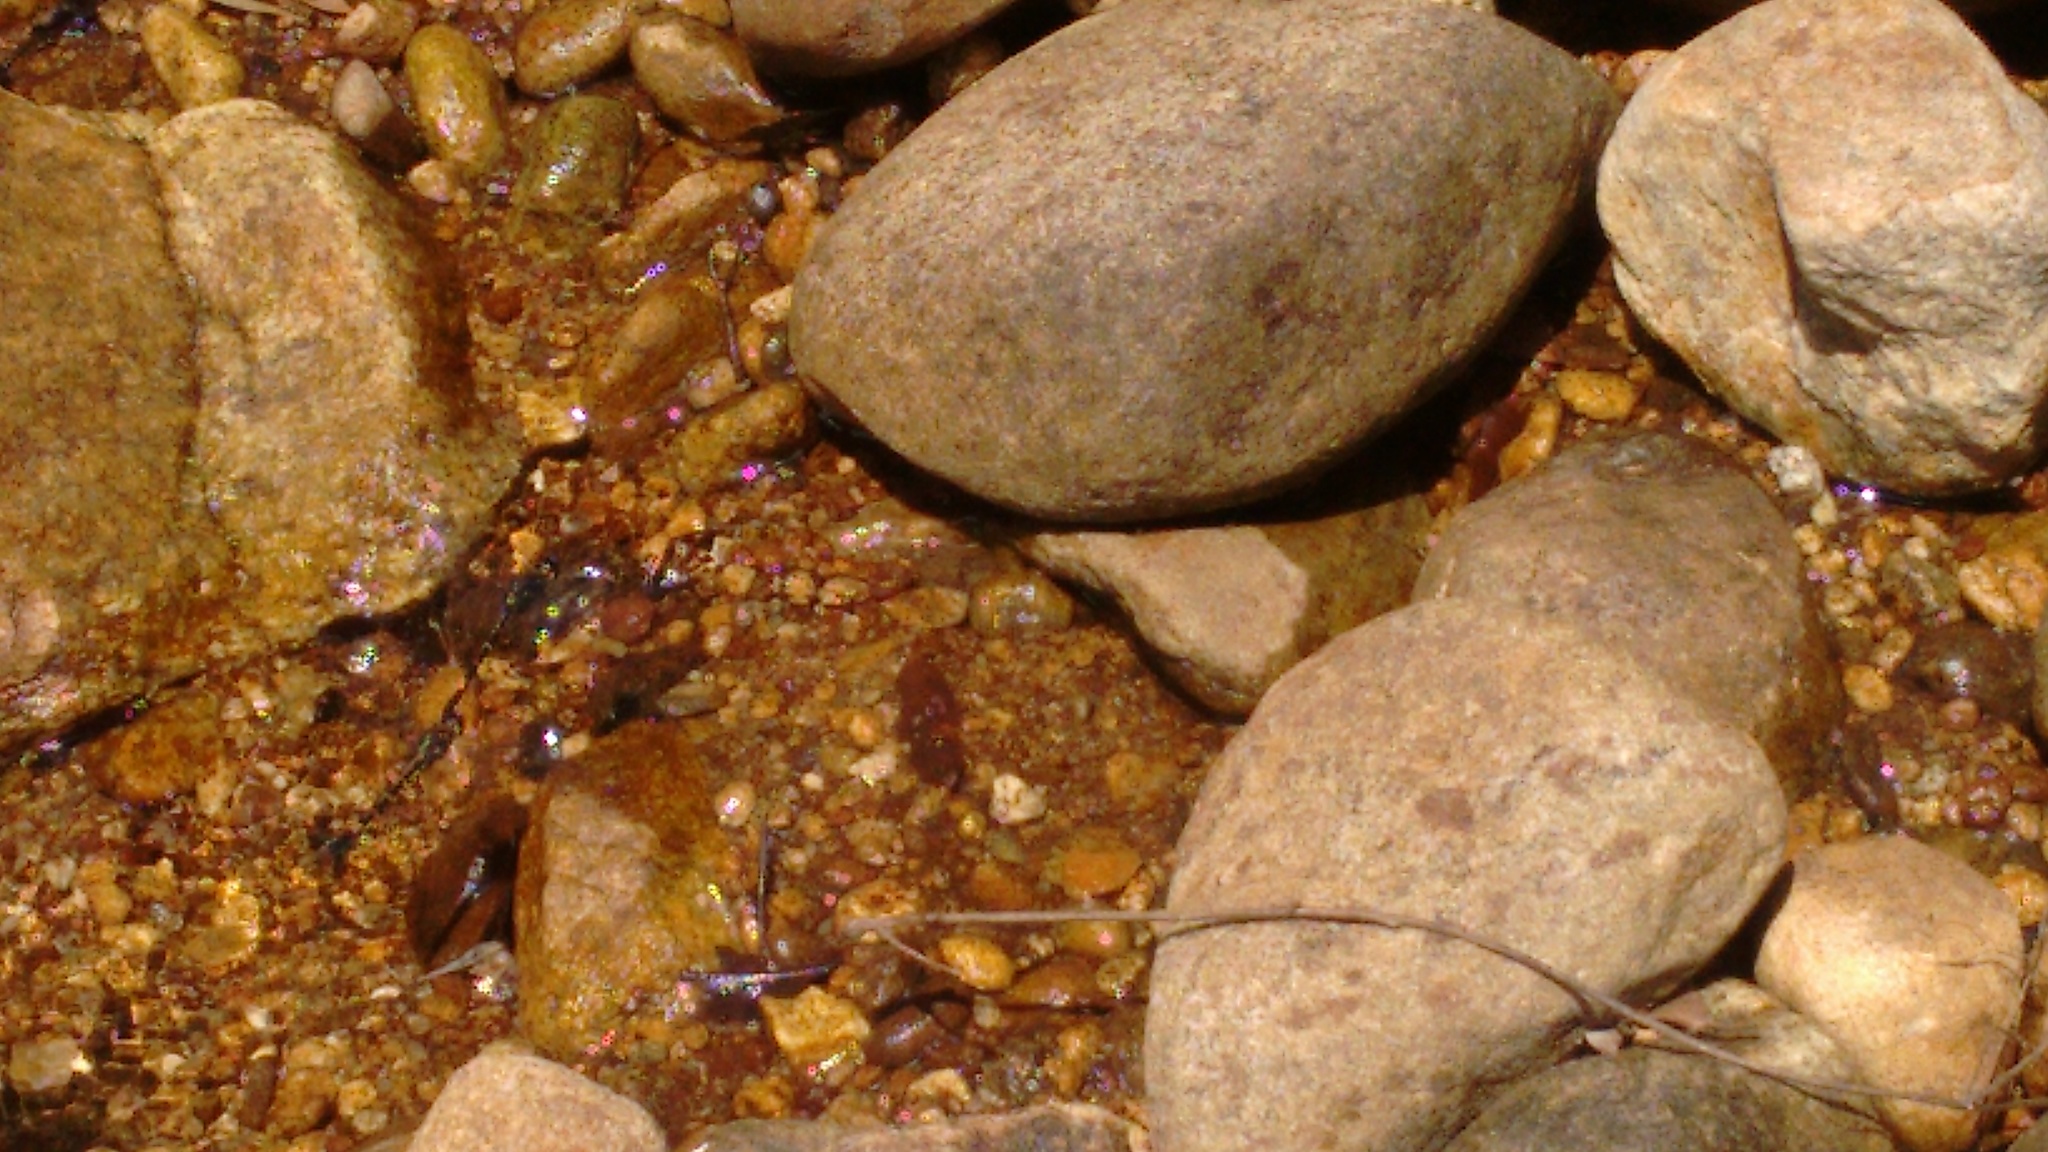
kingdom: Animalia
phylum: Arthropoda
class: Insecta
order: Odonata
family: Libellulidae
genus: Zygonyx
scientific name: Zygonyx iris
